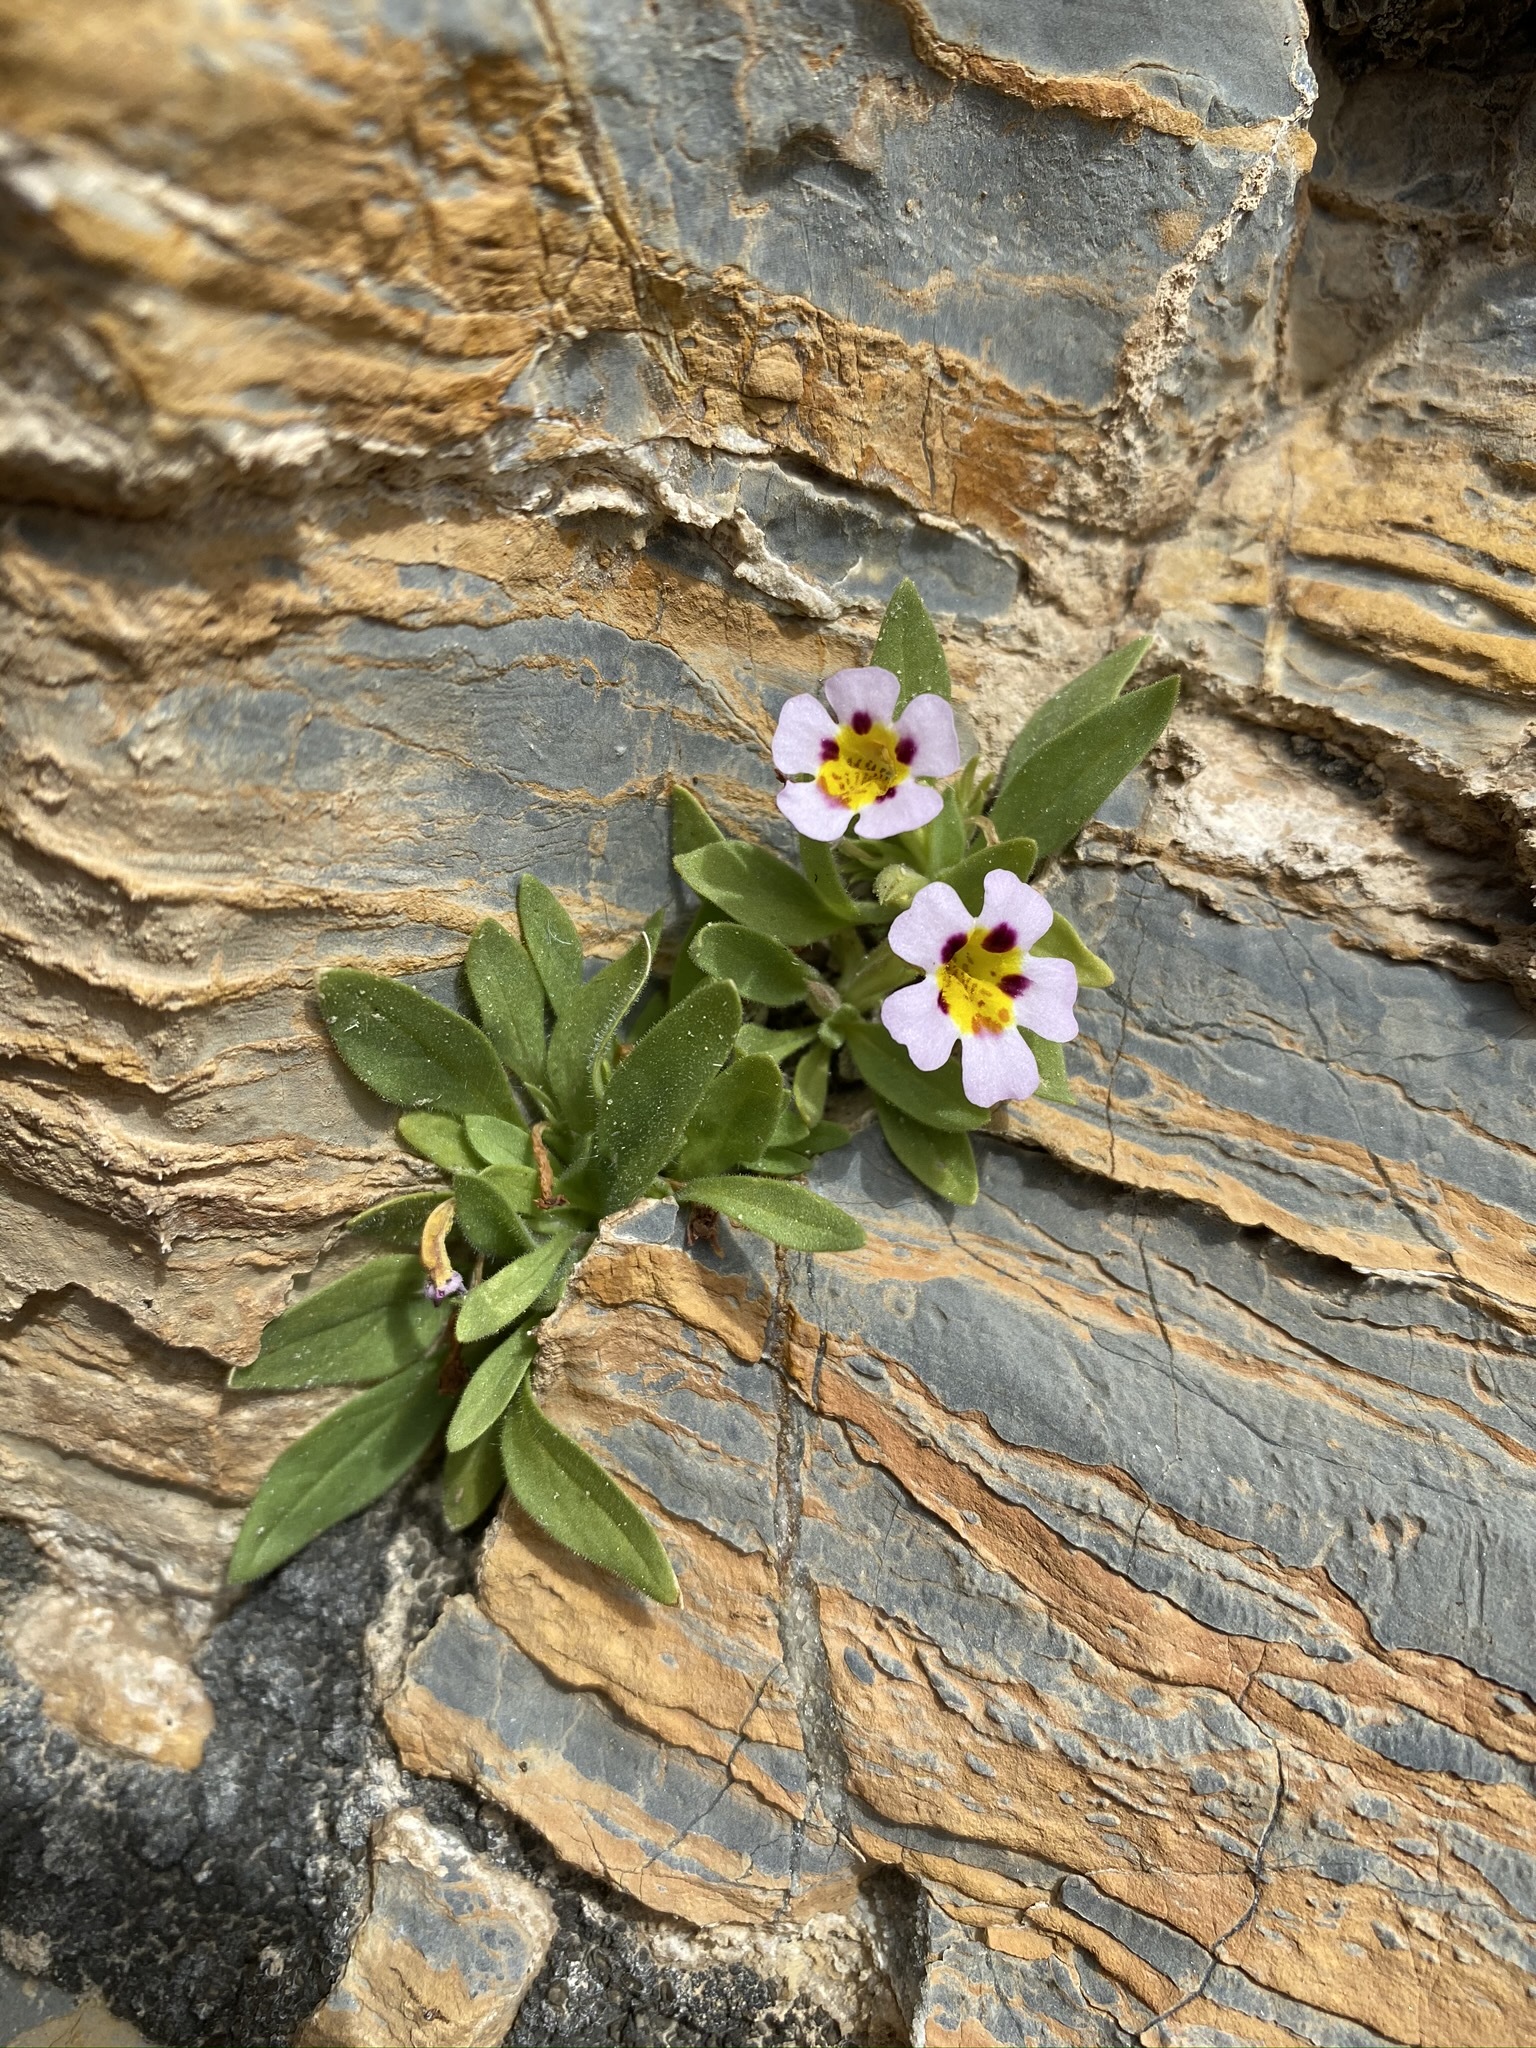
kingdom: Plantae
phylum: Tracheophyta
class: Magnoliopsida
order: Lamiales
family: Phrymaceae
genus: Diplacus
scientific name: Diplacus rupicola
